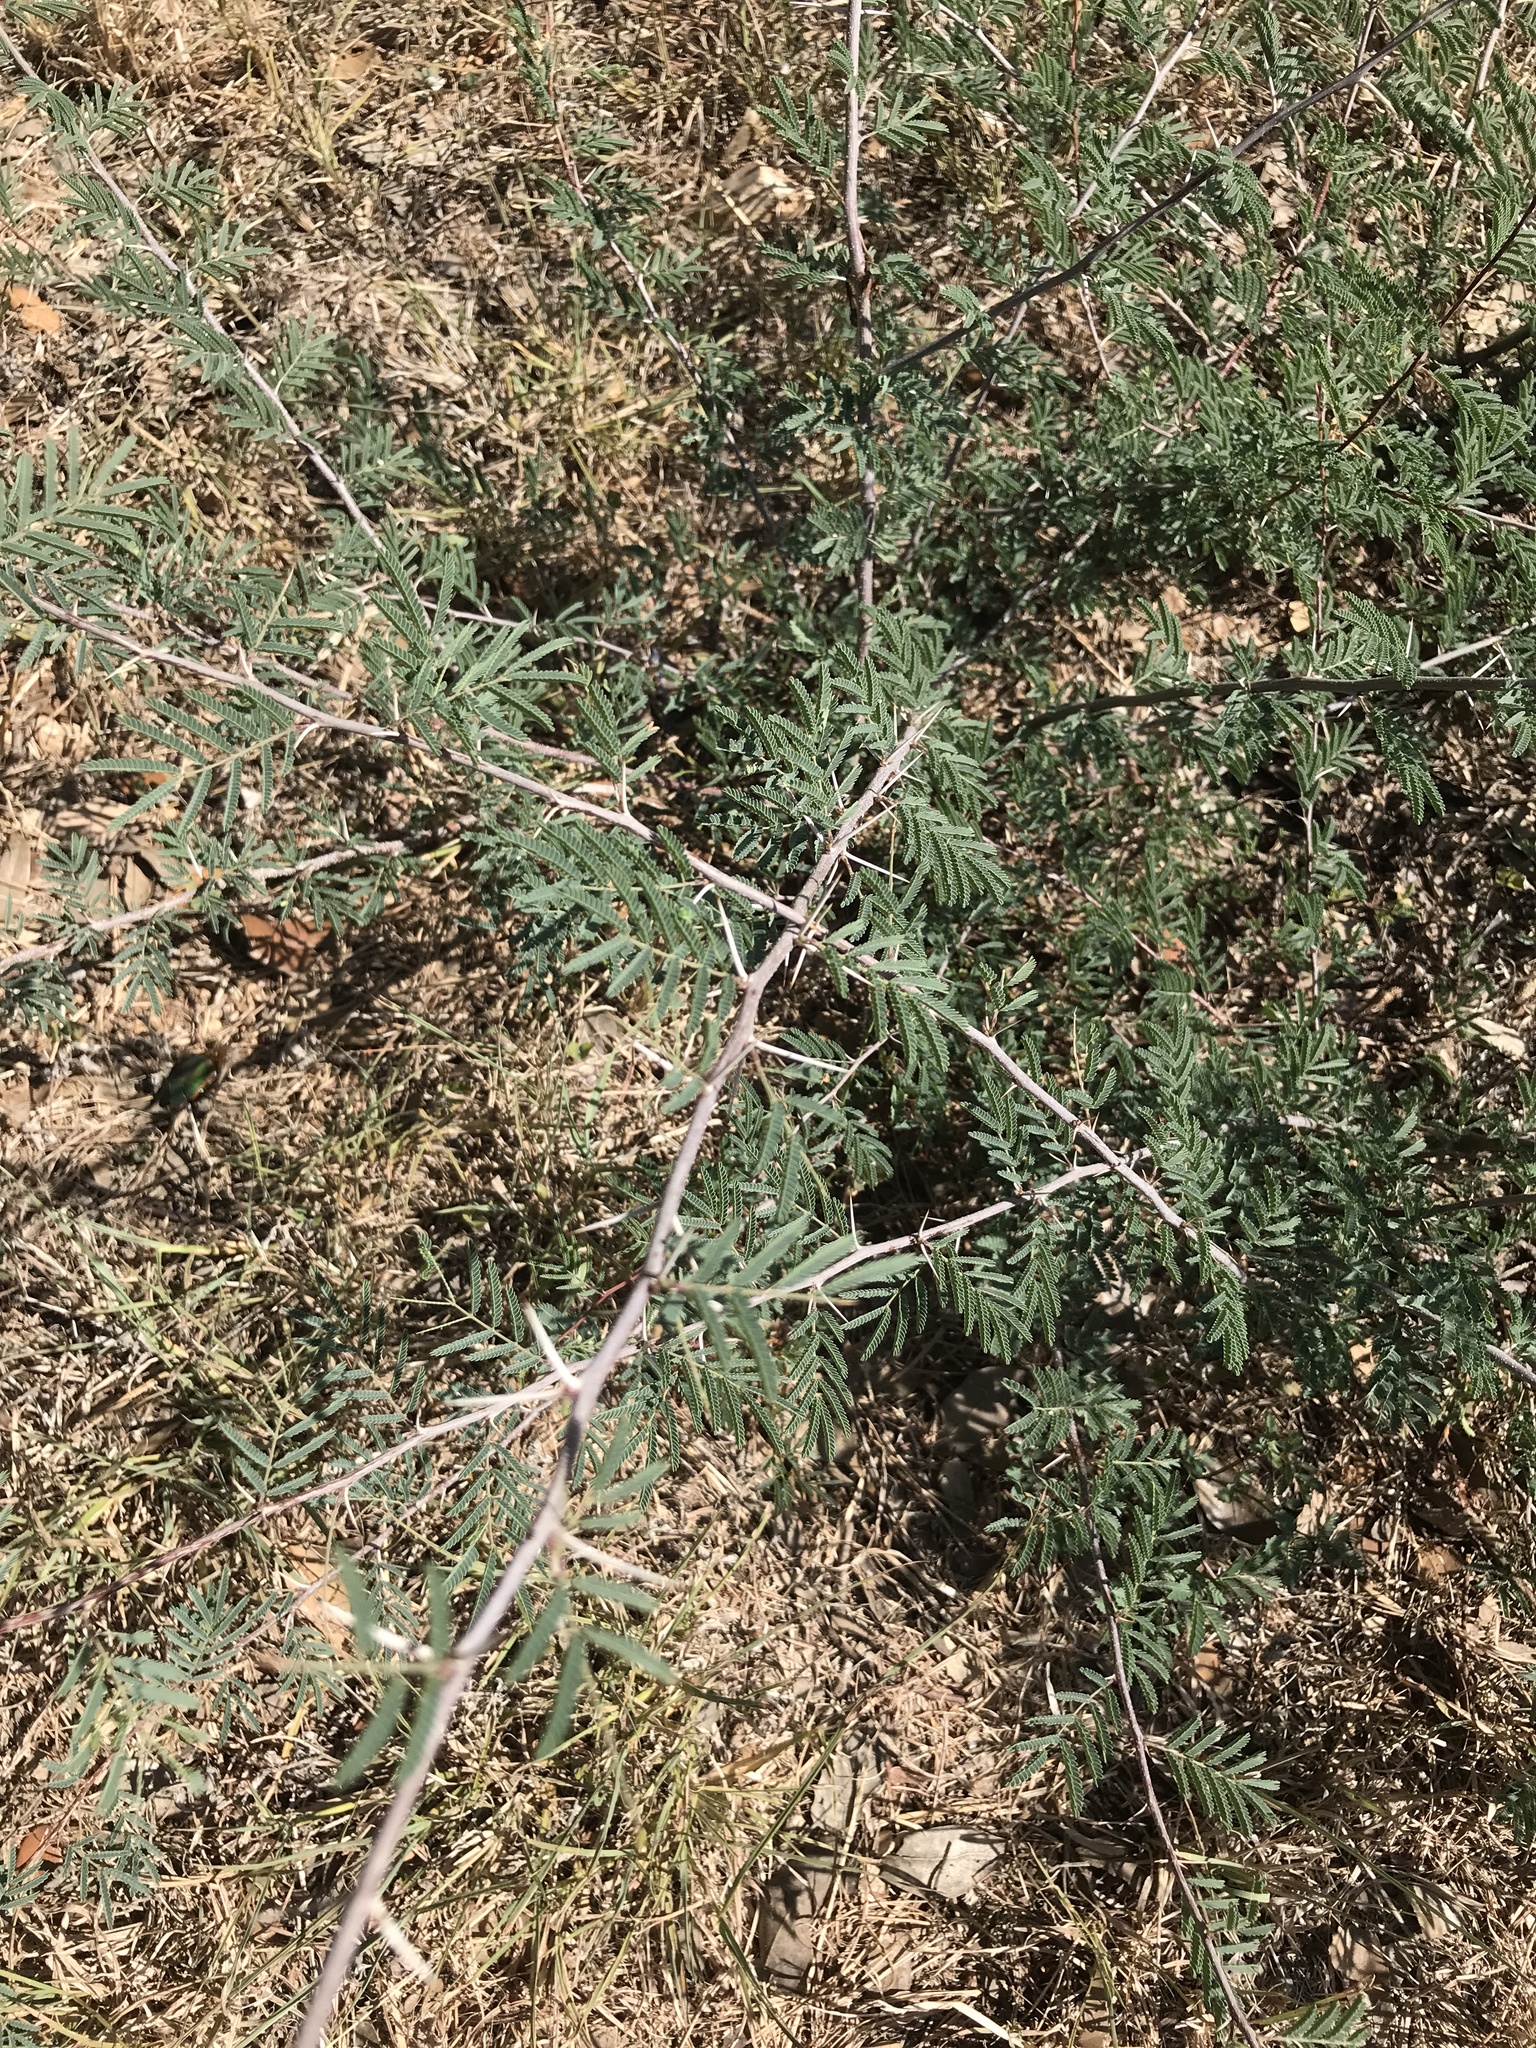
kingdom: Plantae
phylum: Tracheophyta
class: Magnoliopsida
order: Fabales
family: Fabaceae
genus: Vachellia
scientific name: Vachellia farnesiana
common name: Sweet acacia
